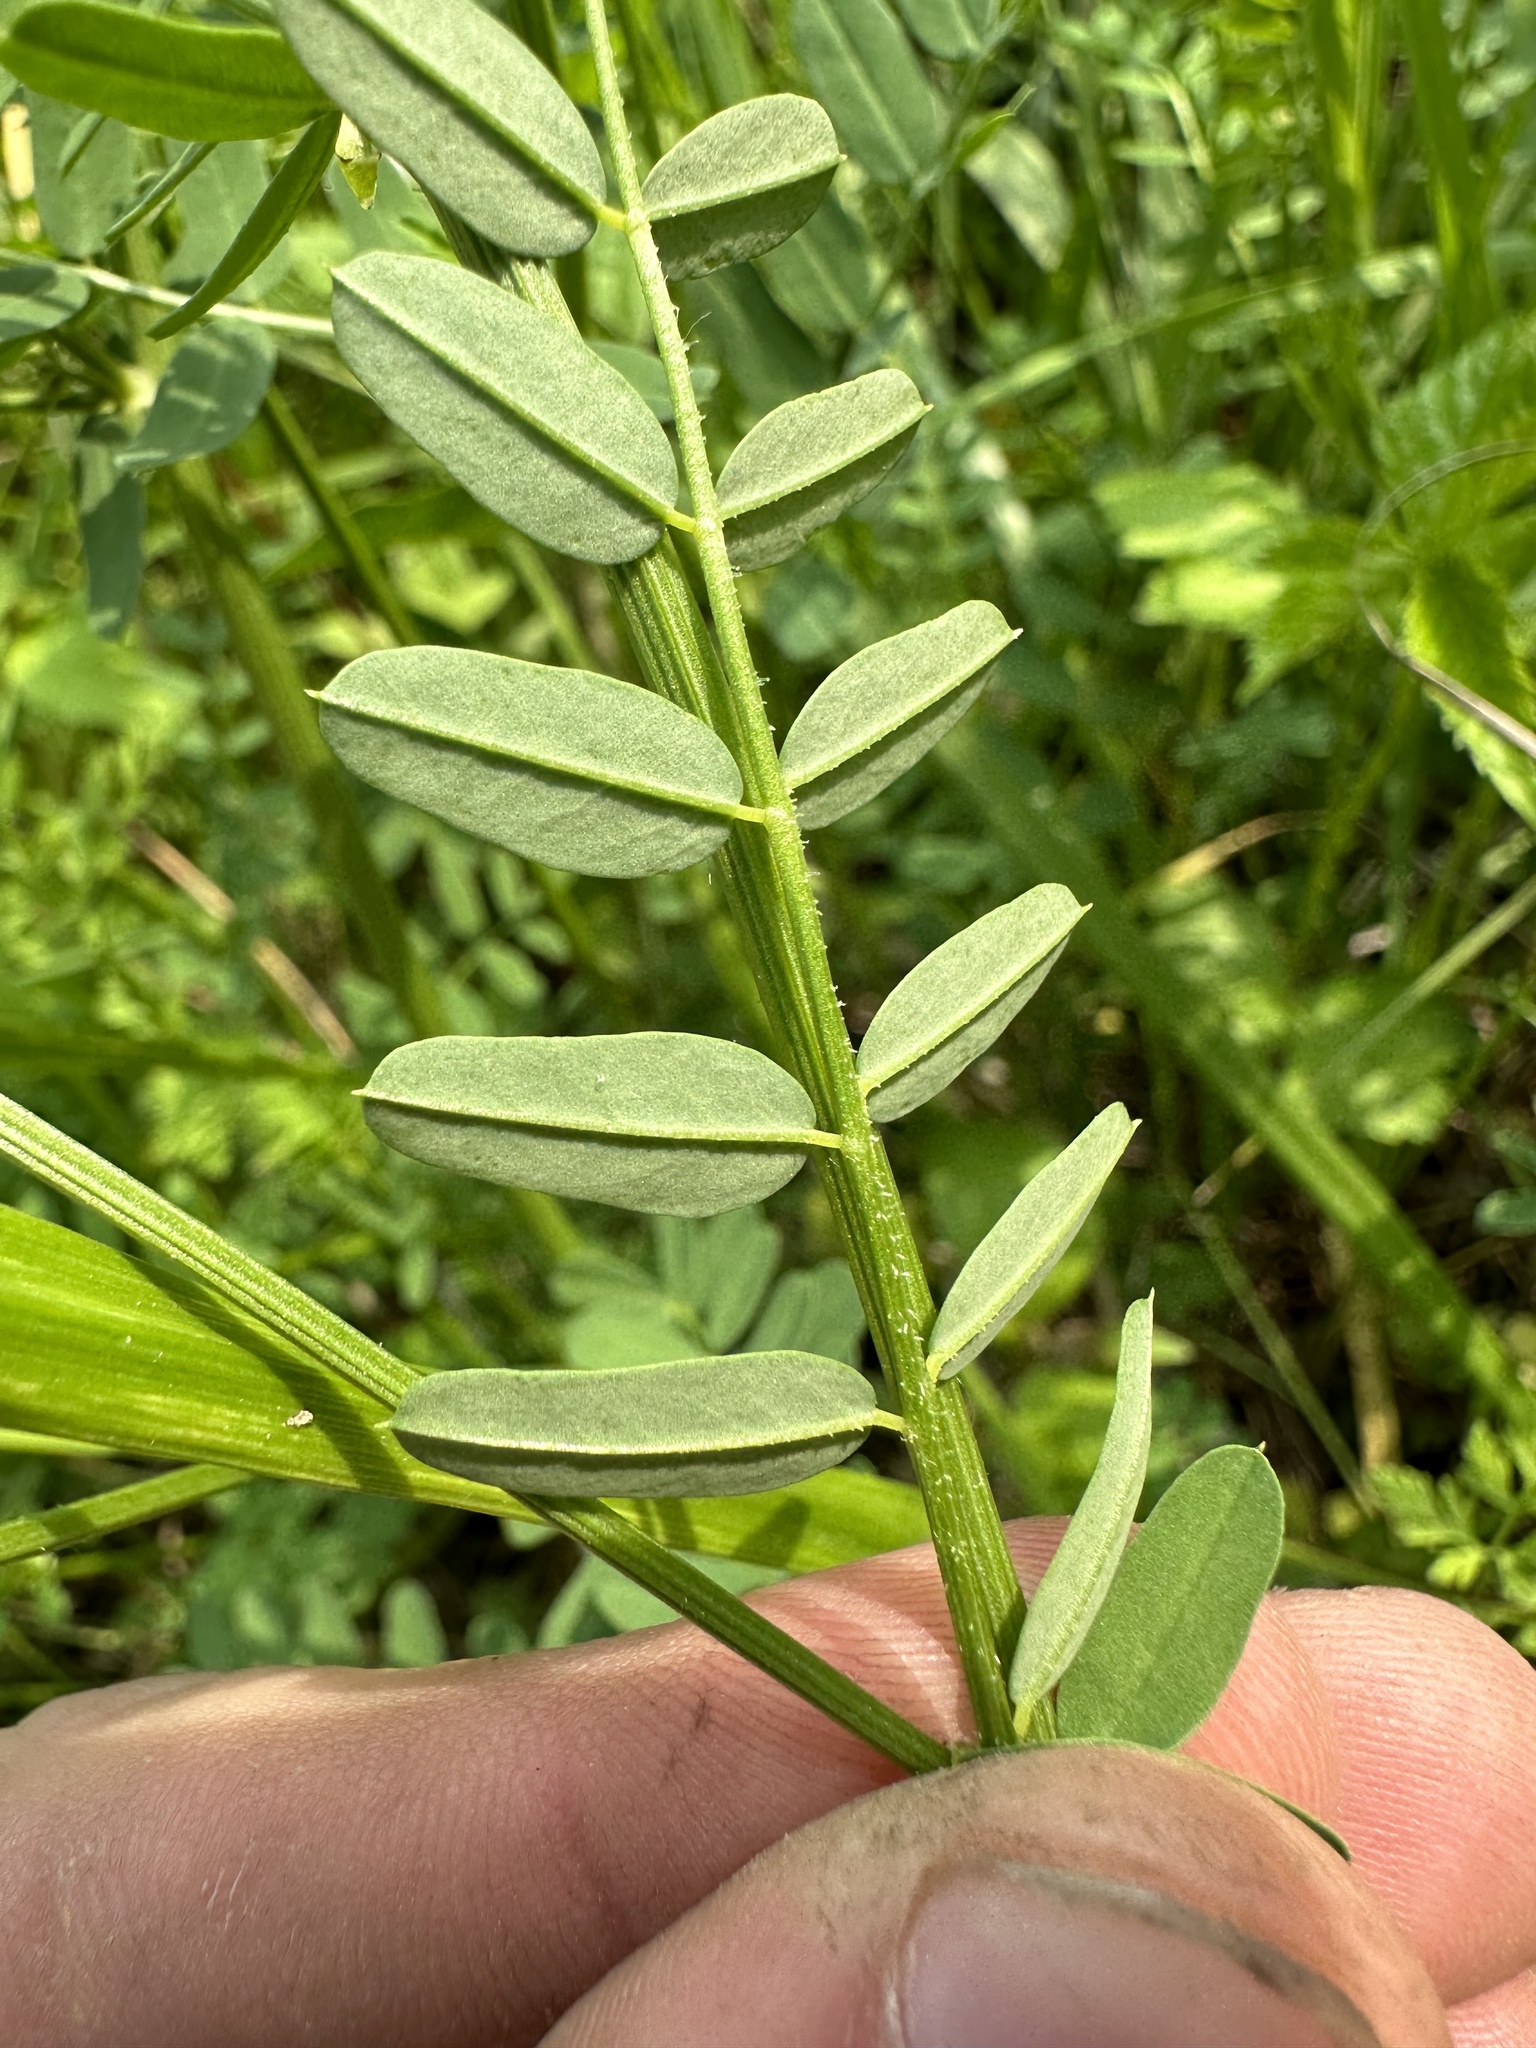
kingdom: Plantae
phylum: Tracheophyta
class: Magnoliopsida
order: Fabales
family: Fabaceae
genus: Coronilla
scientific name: Coronilla varia
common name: Crownvetch
